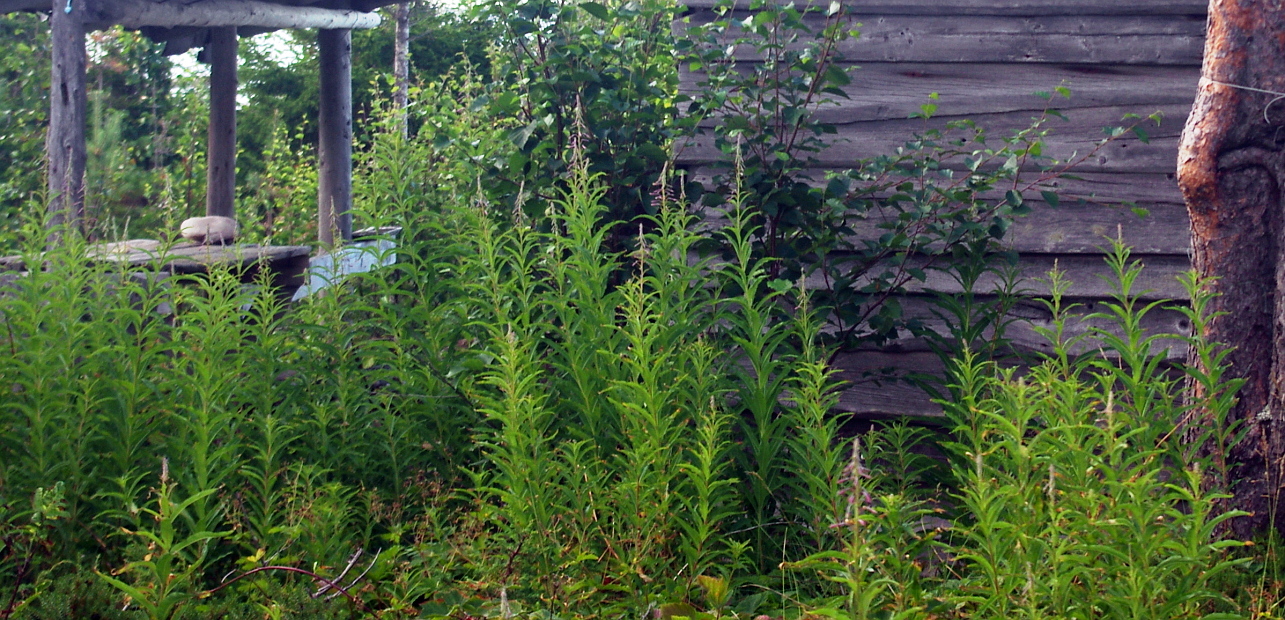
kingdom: Plantae
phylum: Tracheophyta
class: Magnoliopsida
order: Myrtales
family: Onagraceae
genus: Chamaenerion
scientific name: Chamaenerion angustifolium
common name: Fireweed
